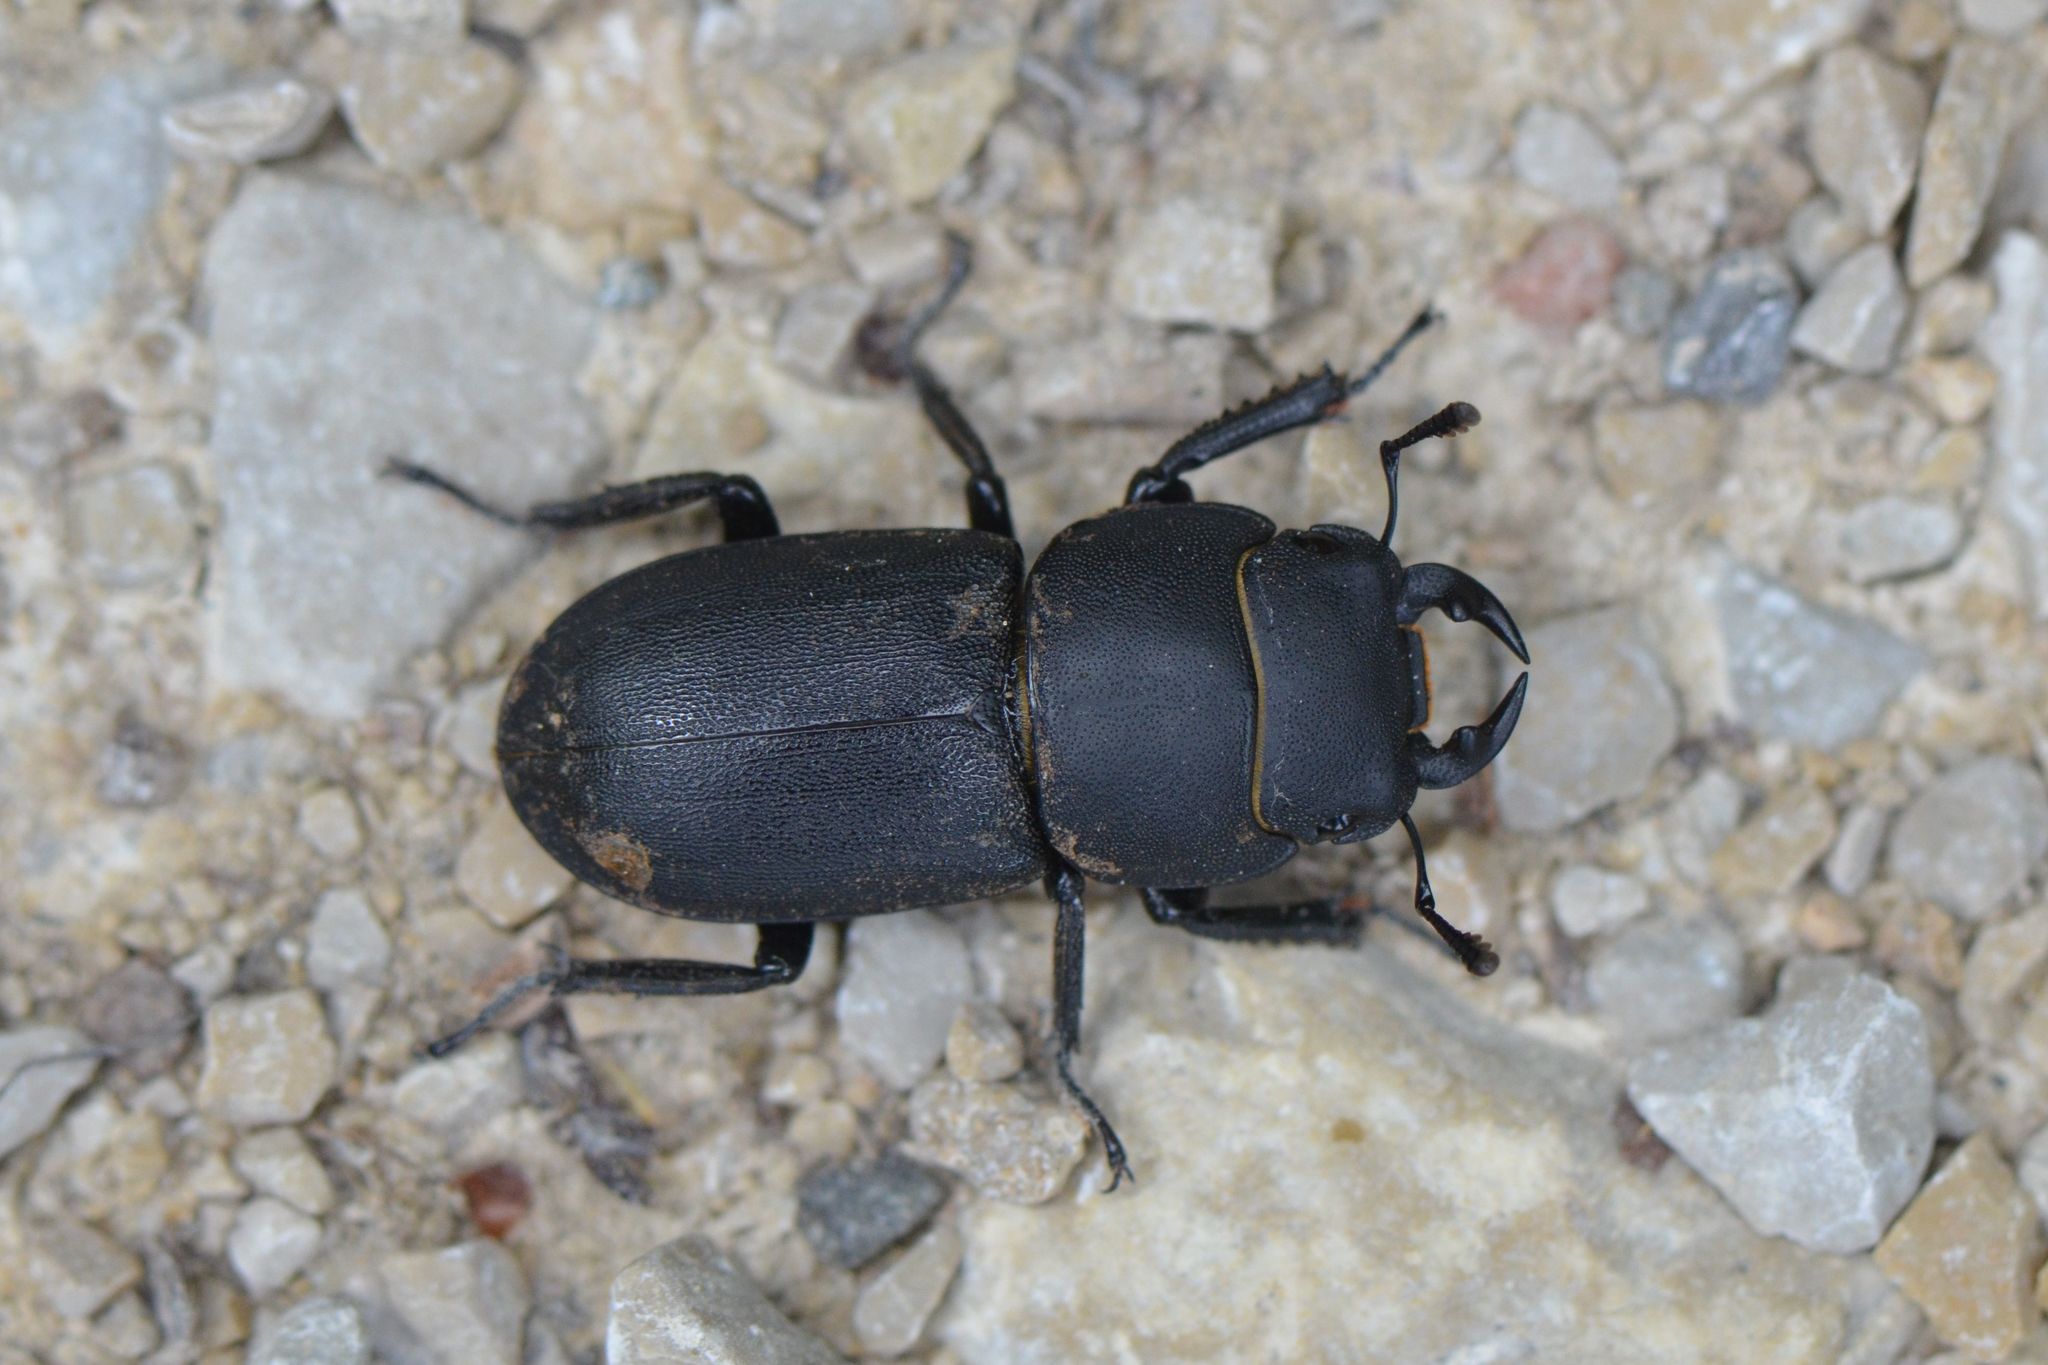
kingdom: Animalia
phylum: Arthropoda
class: Insecta
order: Coleoptera
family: Lucanidae
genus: Dorcus
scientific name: Dorcus parallelipipedus
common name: Lesser stag beetle
